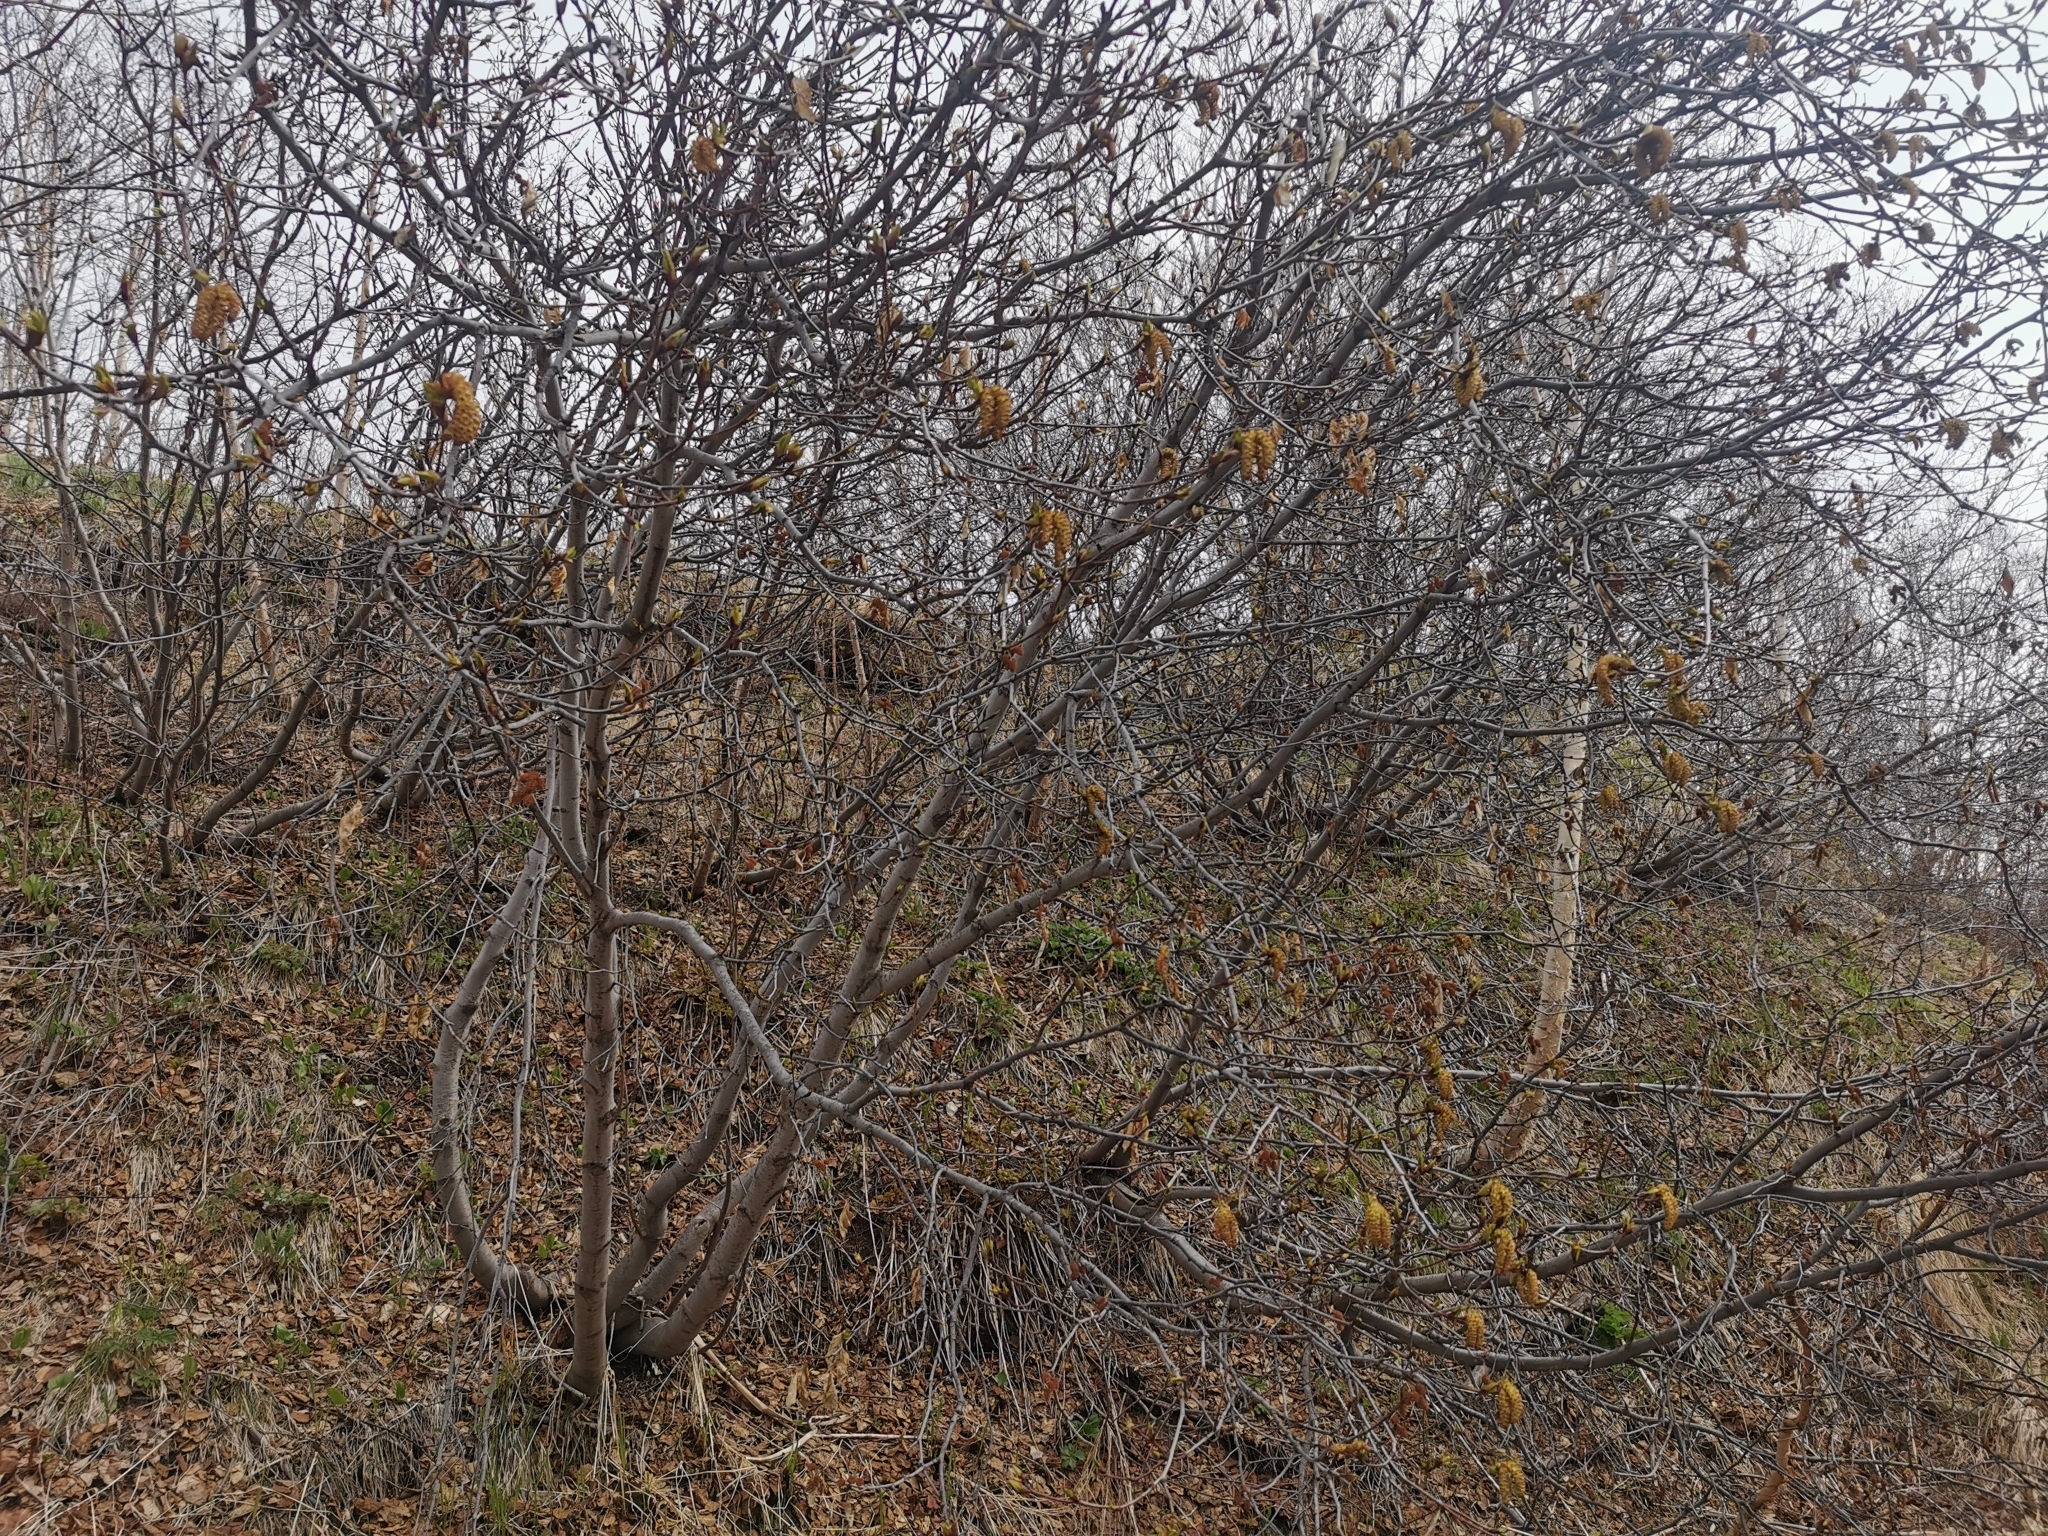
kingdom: Plantae
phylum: Tracheophyta
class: Magnoliopsida
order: Fagales
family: Betulaceae
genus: Alnus
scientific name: Alnus alnobetula
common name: Green alder
